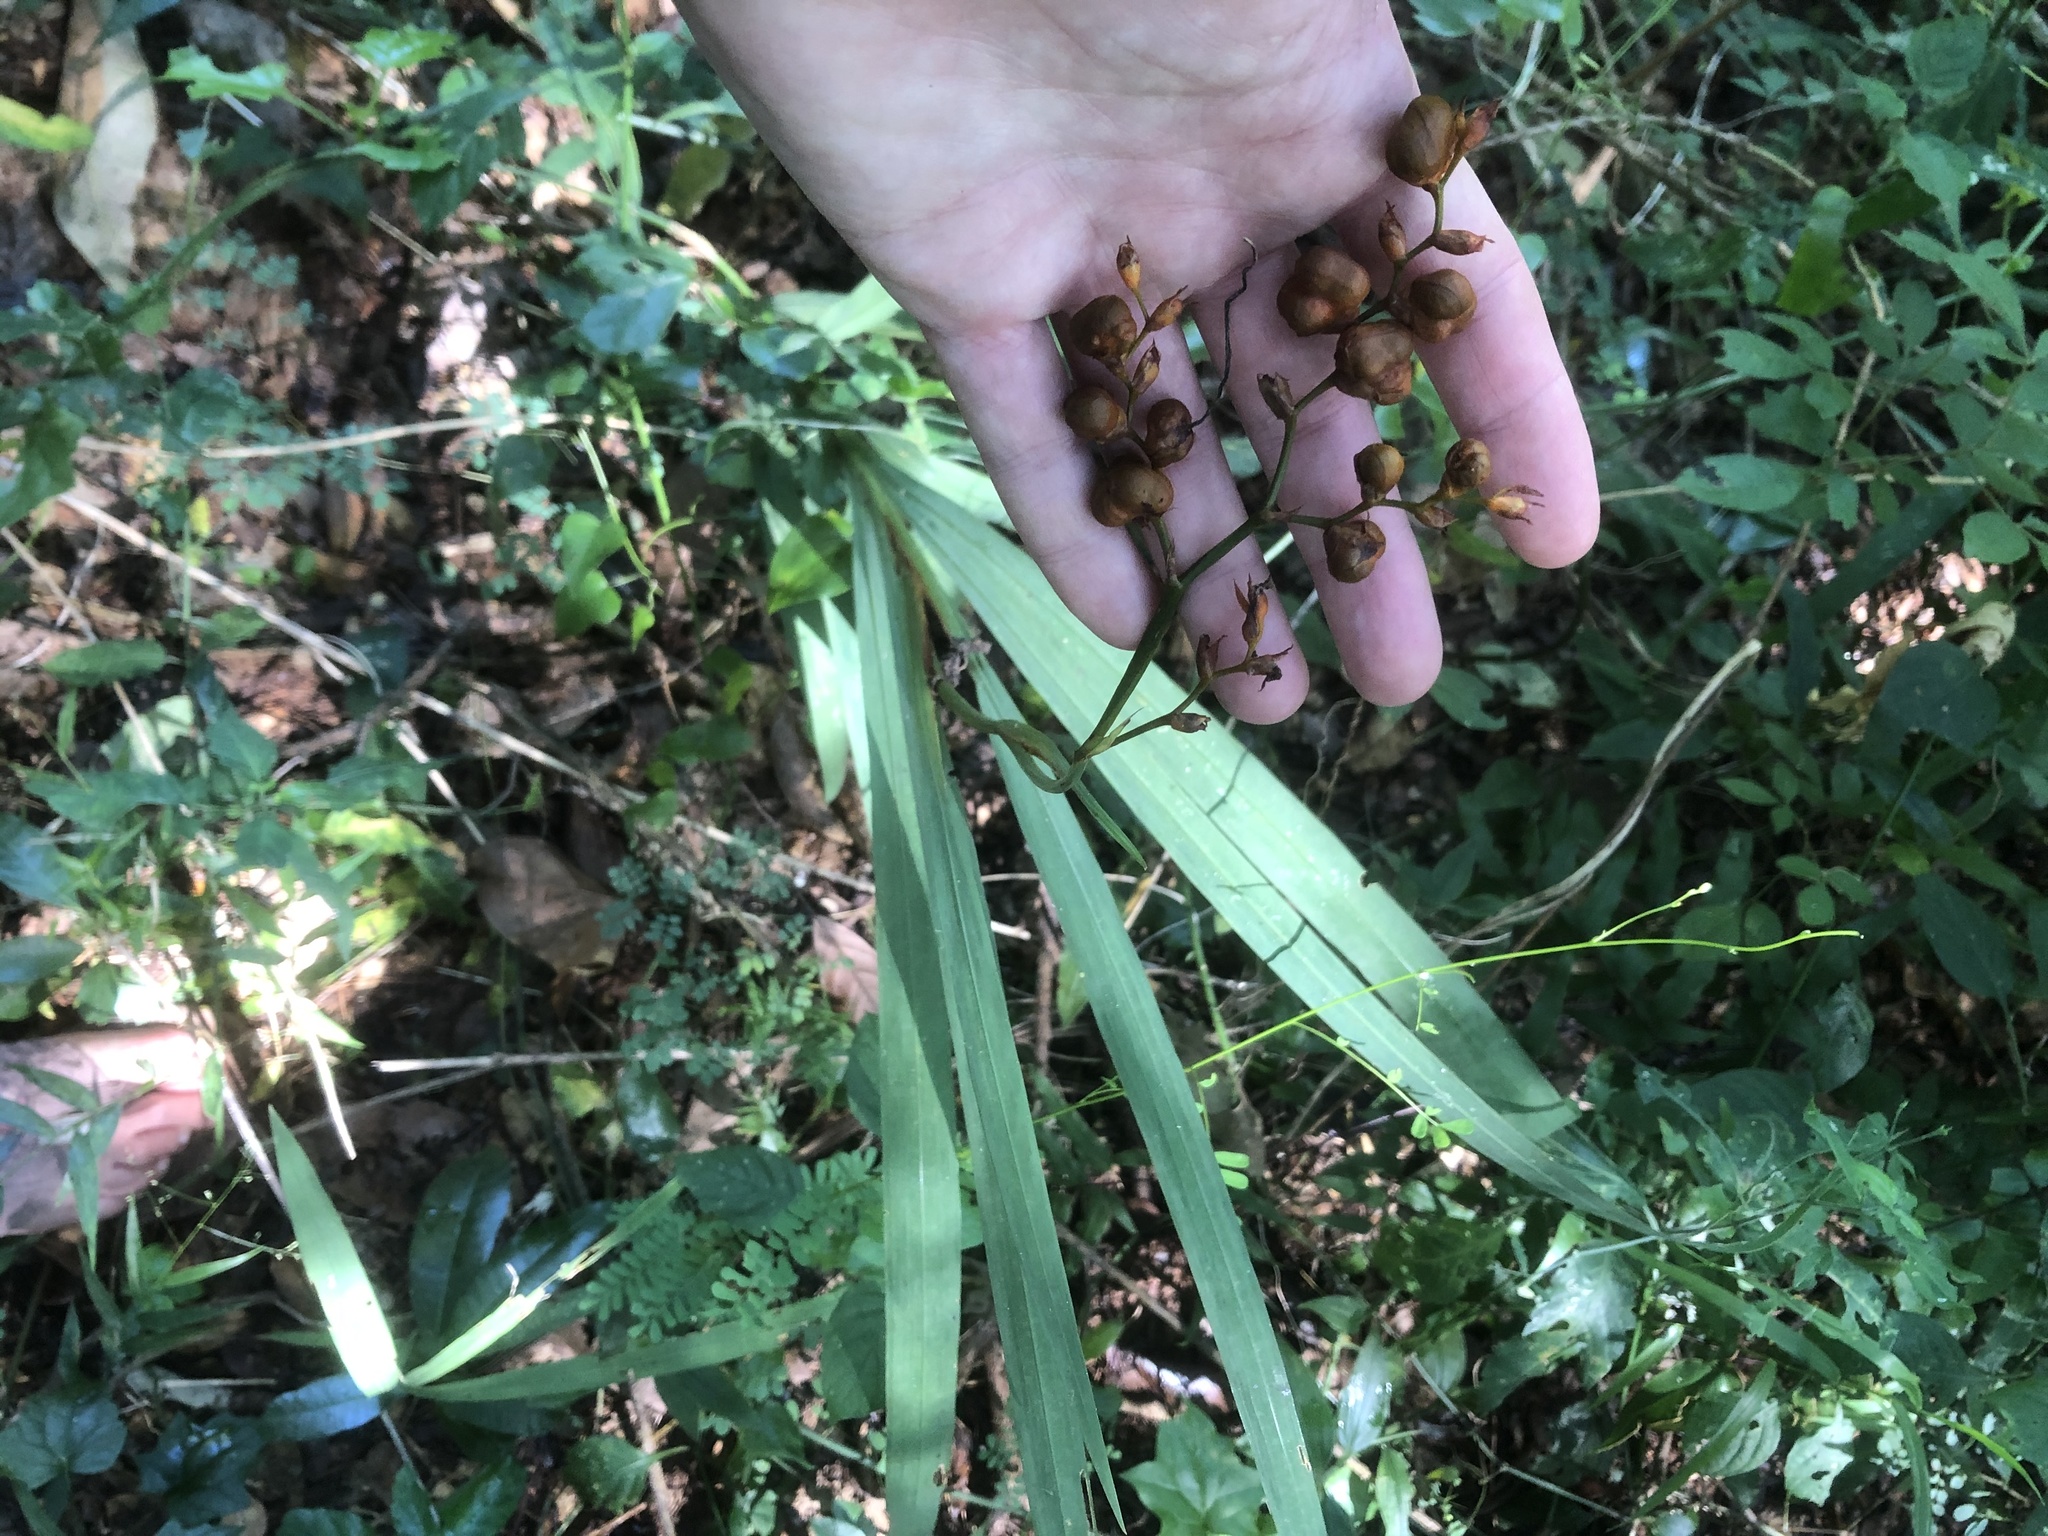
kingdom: Plantae
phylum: Tracheophyta
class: Liliopsida
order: Asparagales
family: Iridaceae
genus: Crocosmia
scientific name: Crocosmia aurea
